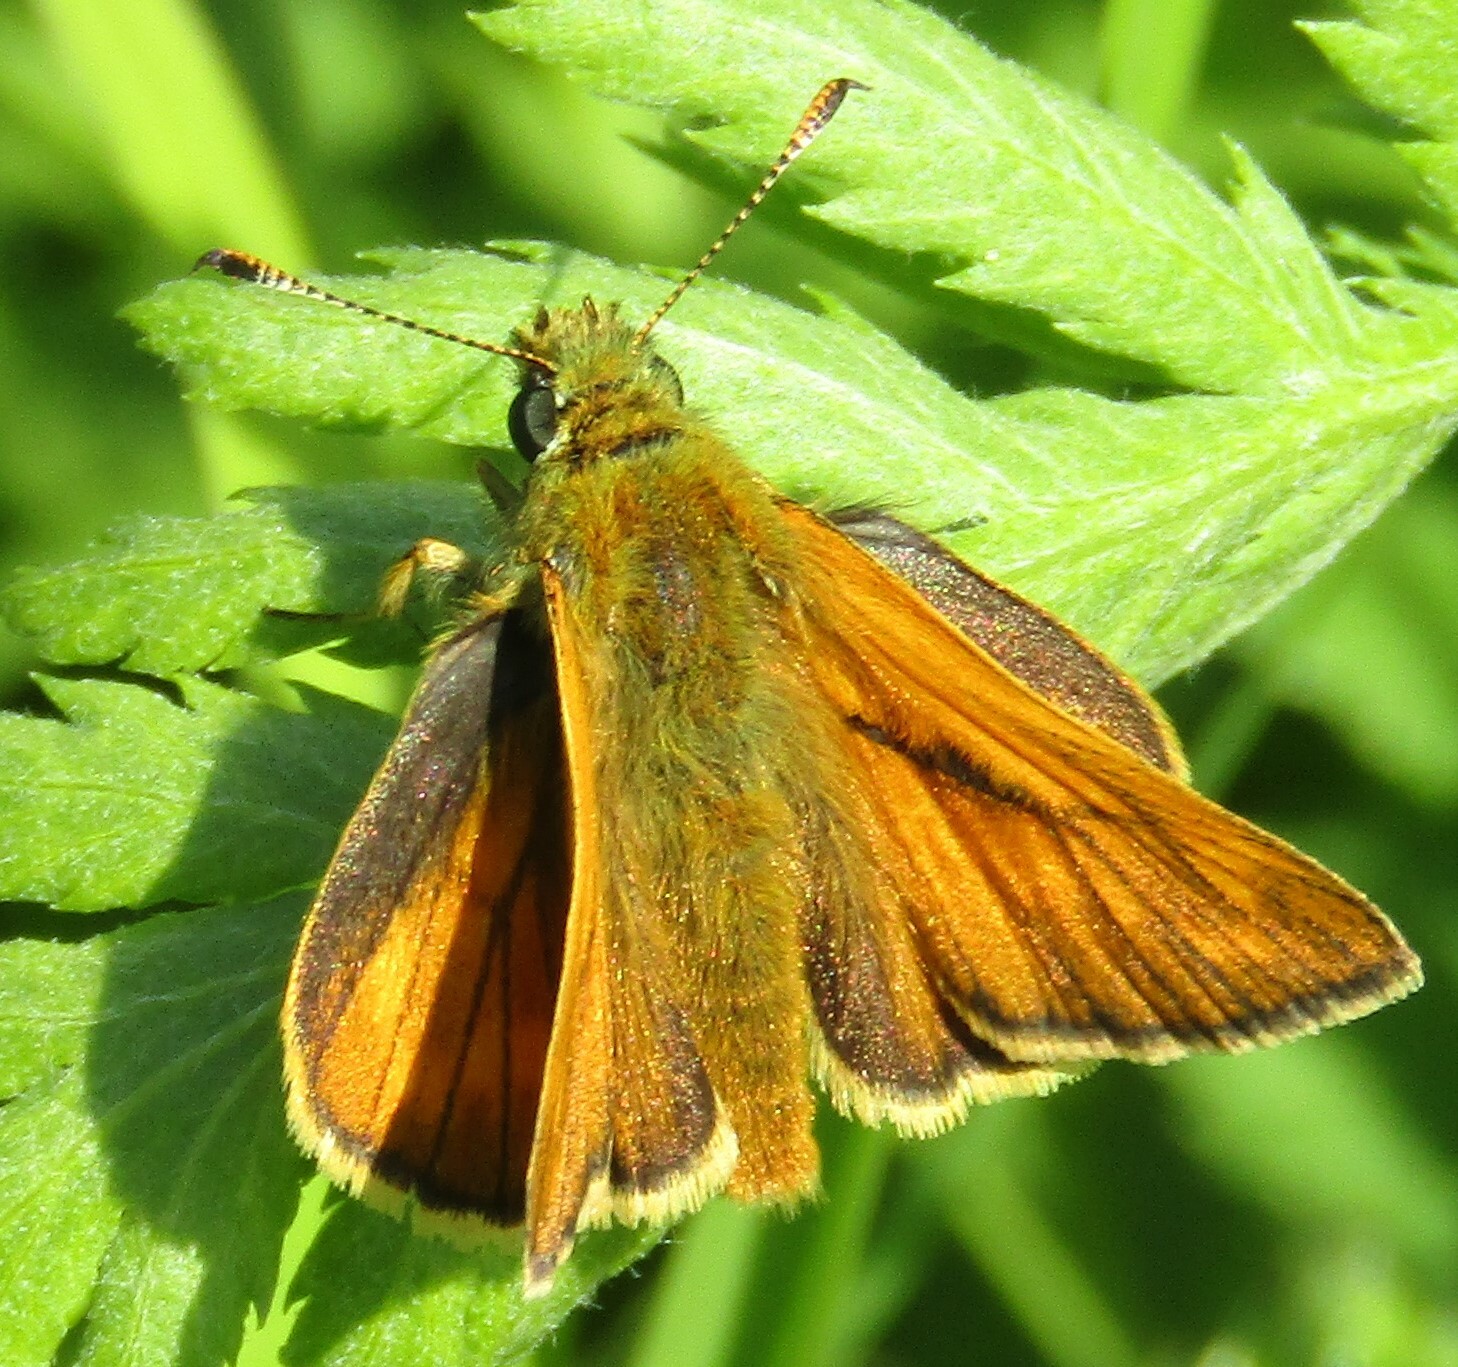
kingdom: Animalia
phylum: Arthropoda
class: Insecta
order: Lepidoptera
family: Hesperiidae
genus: Ochlodes
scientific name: Ochlodes venata
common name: Large skipper
